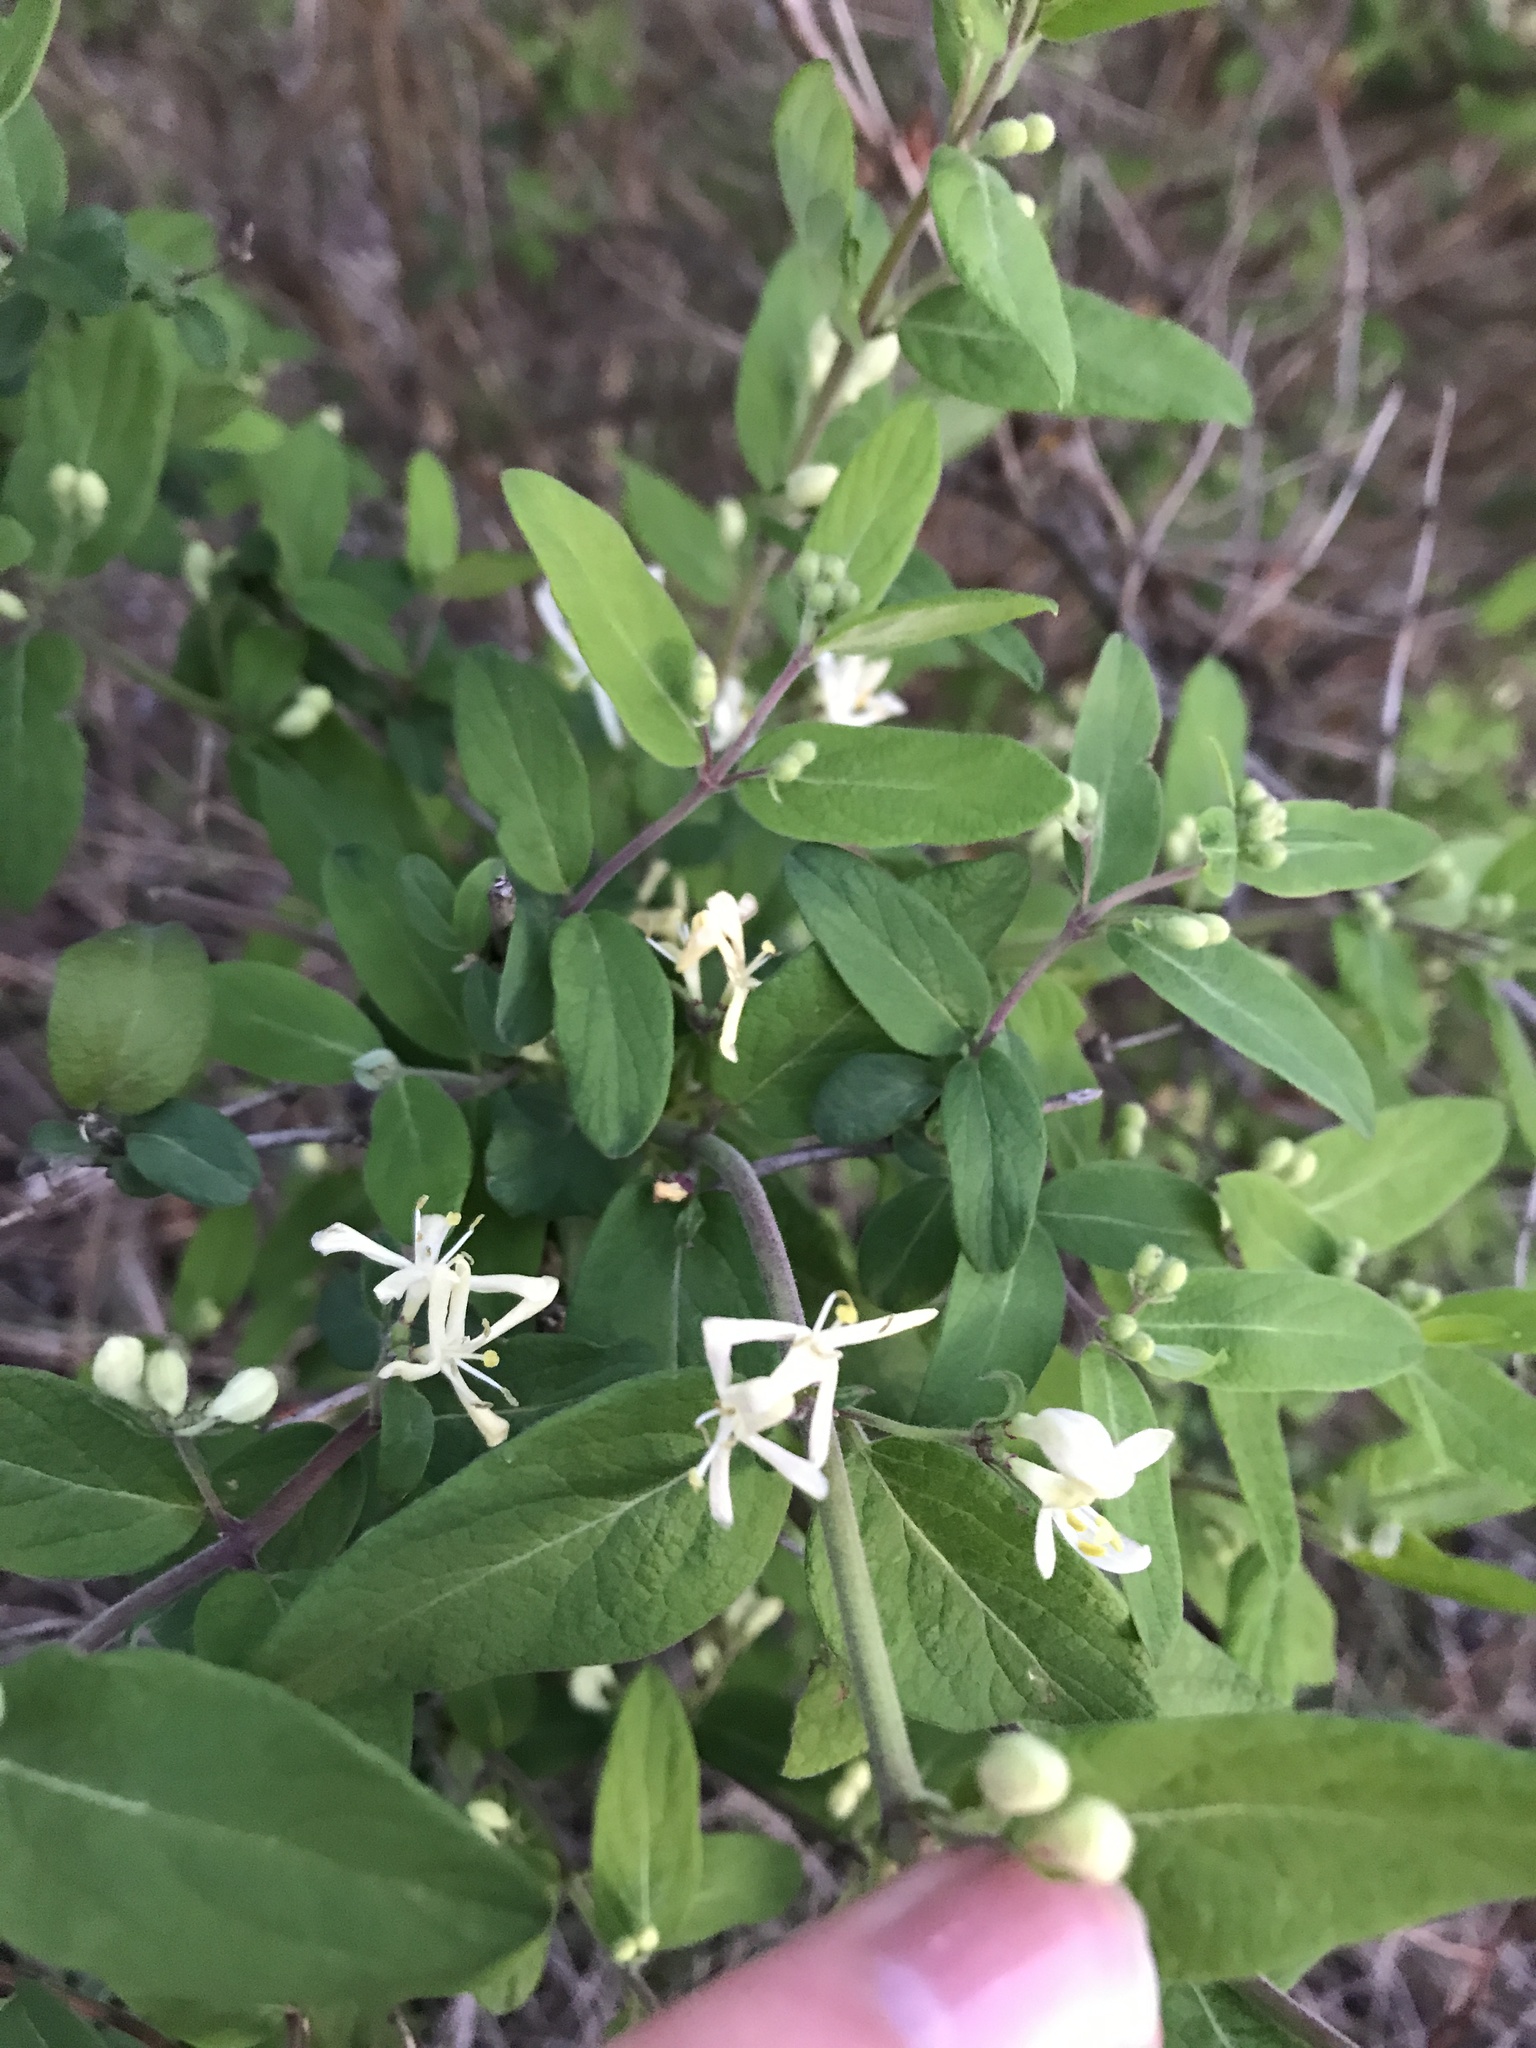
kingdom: Plantae
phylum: Tracheophyta
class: Magnoliopsida
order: Dipsacales
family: Caprifoliaceae
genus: Lonicera
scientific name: Lonicera
